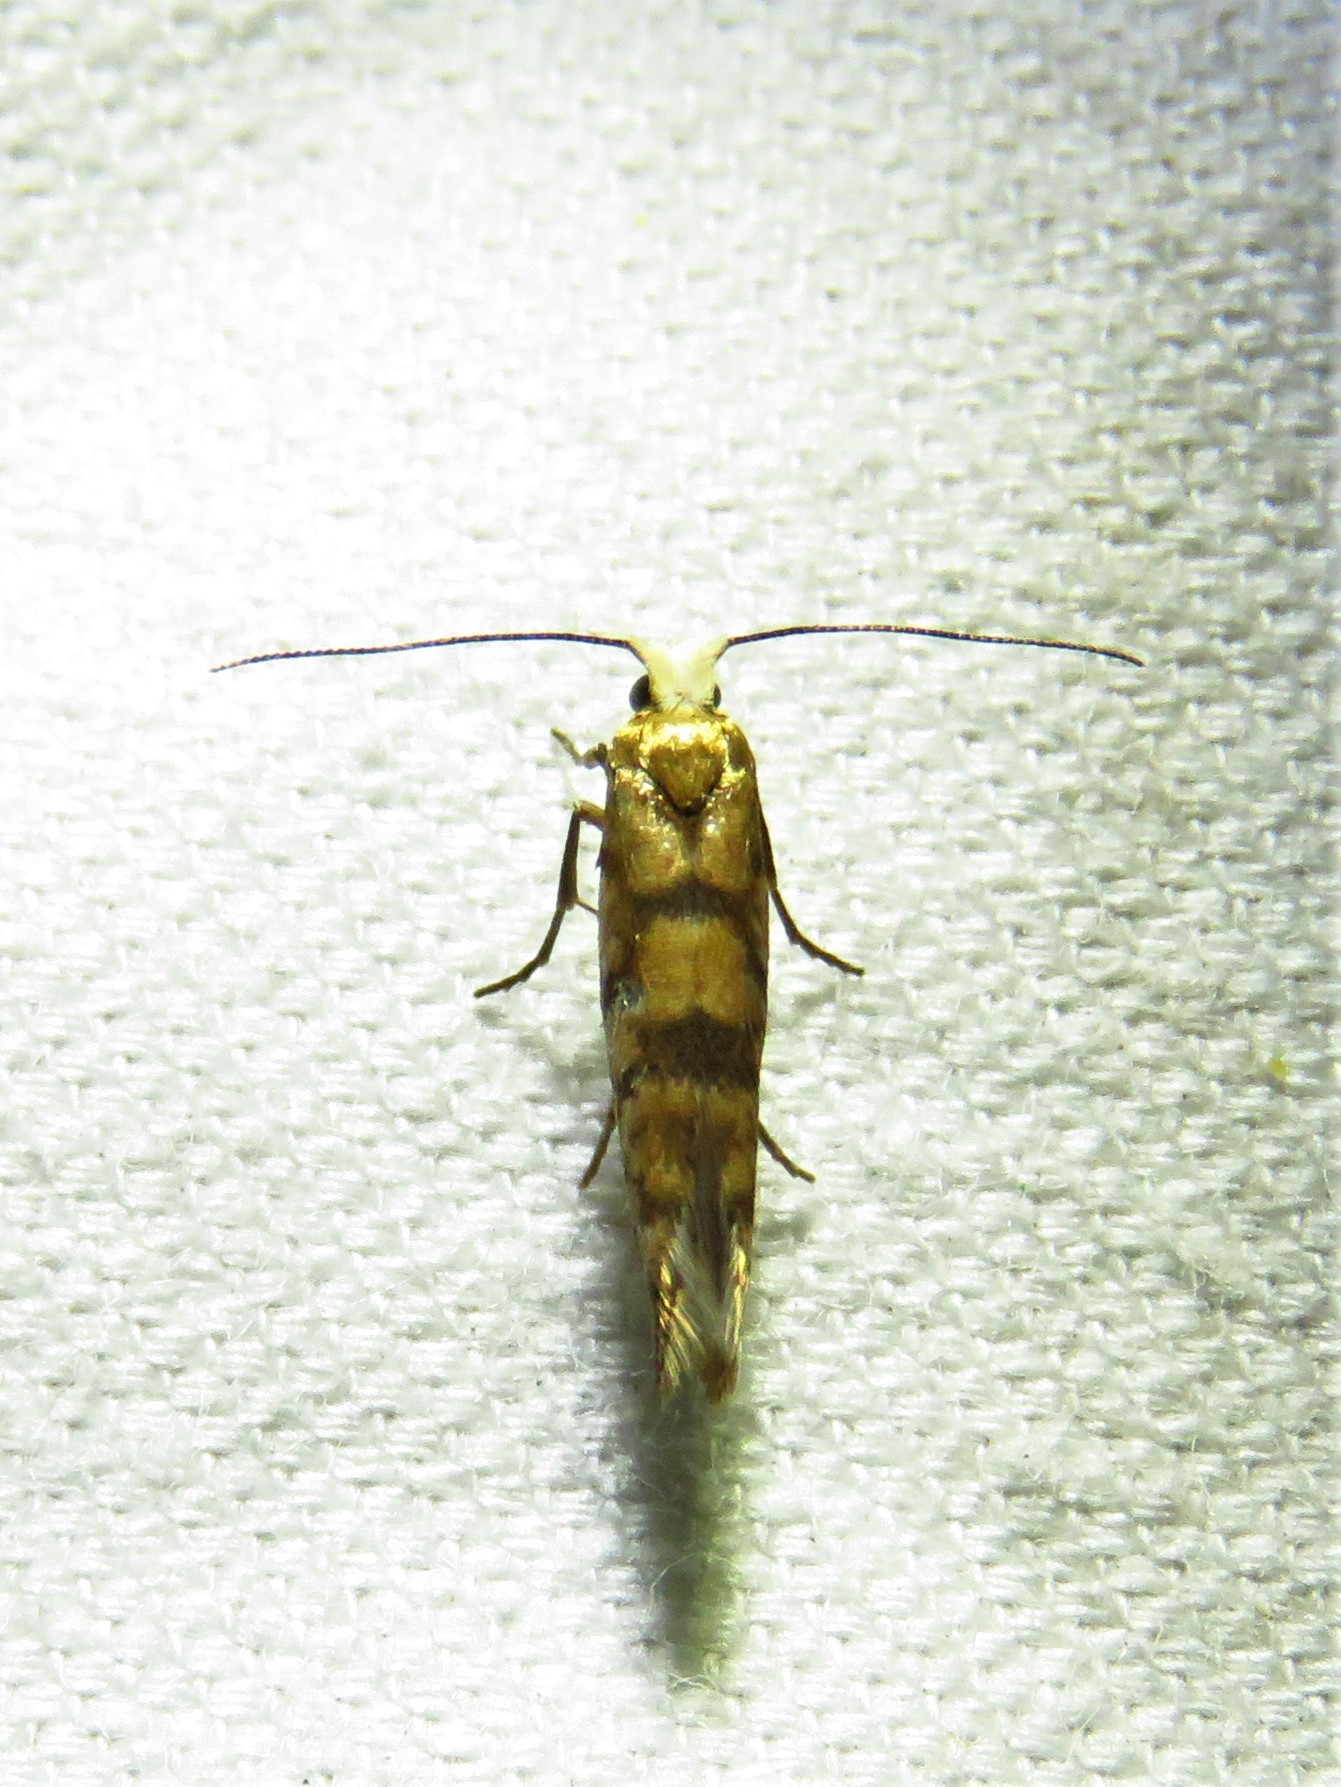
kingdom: Animalia
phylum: Arthropoda
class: Insecta
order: Lepidoptera
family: Argyresthiidae
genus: Argyresthia
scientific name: Argyresthia alternatella
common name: Juniper seed moth
